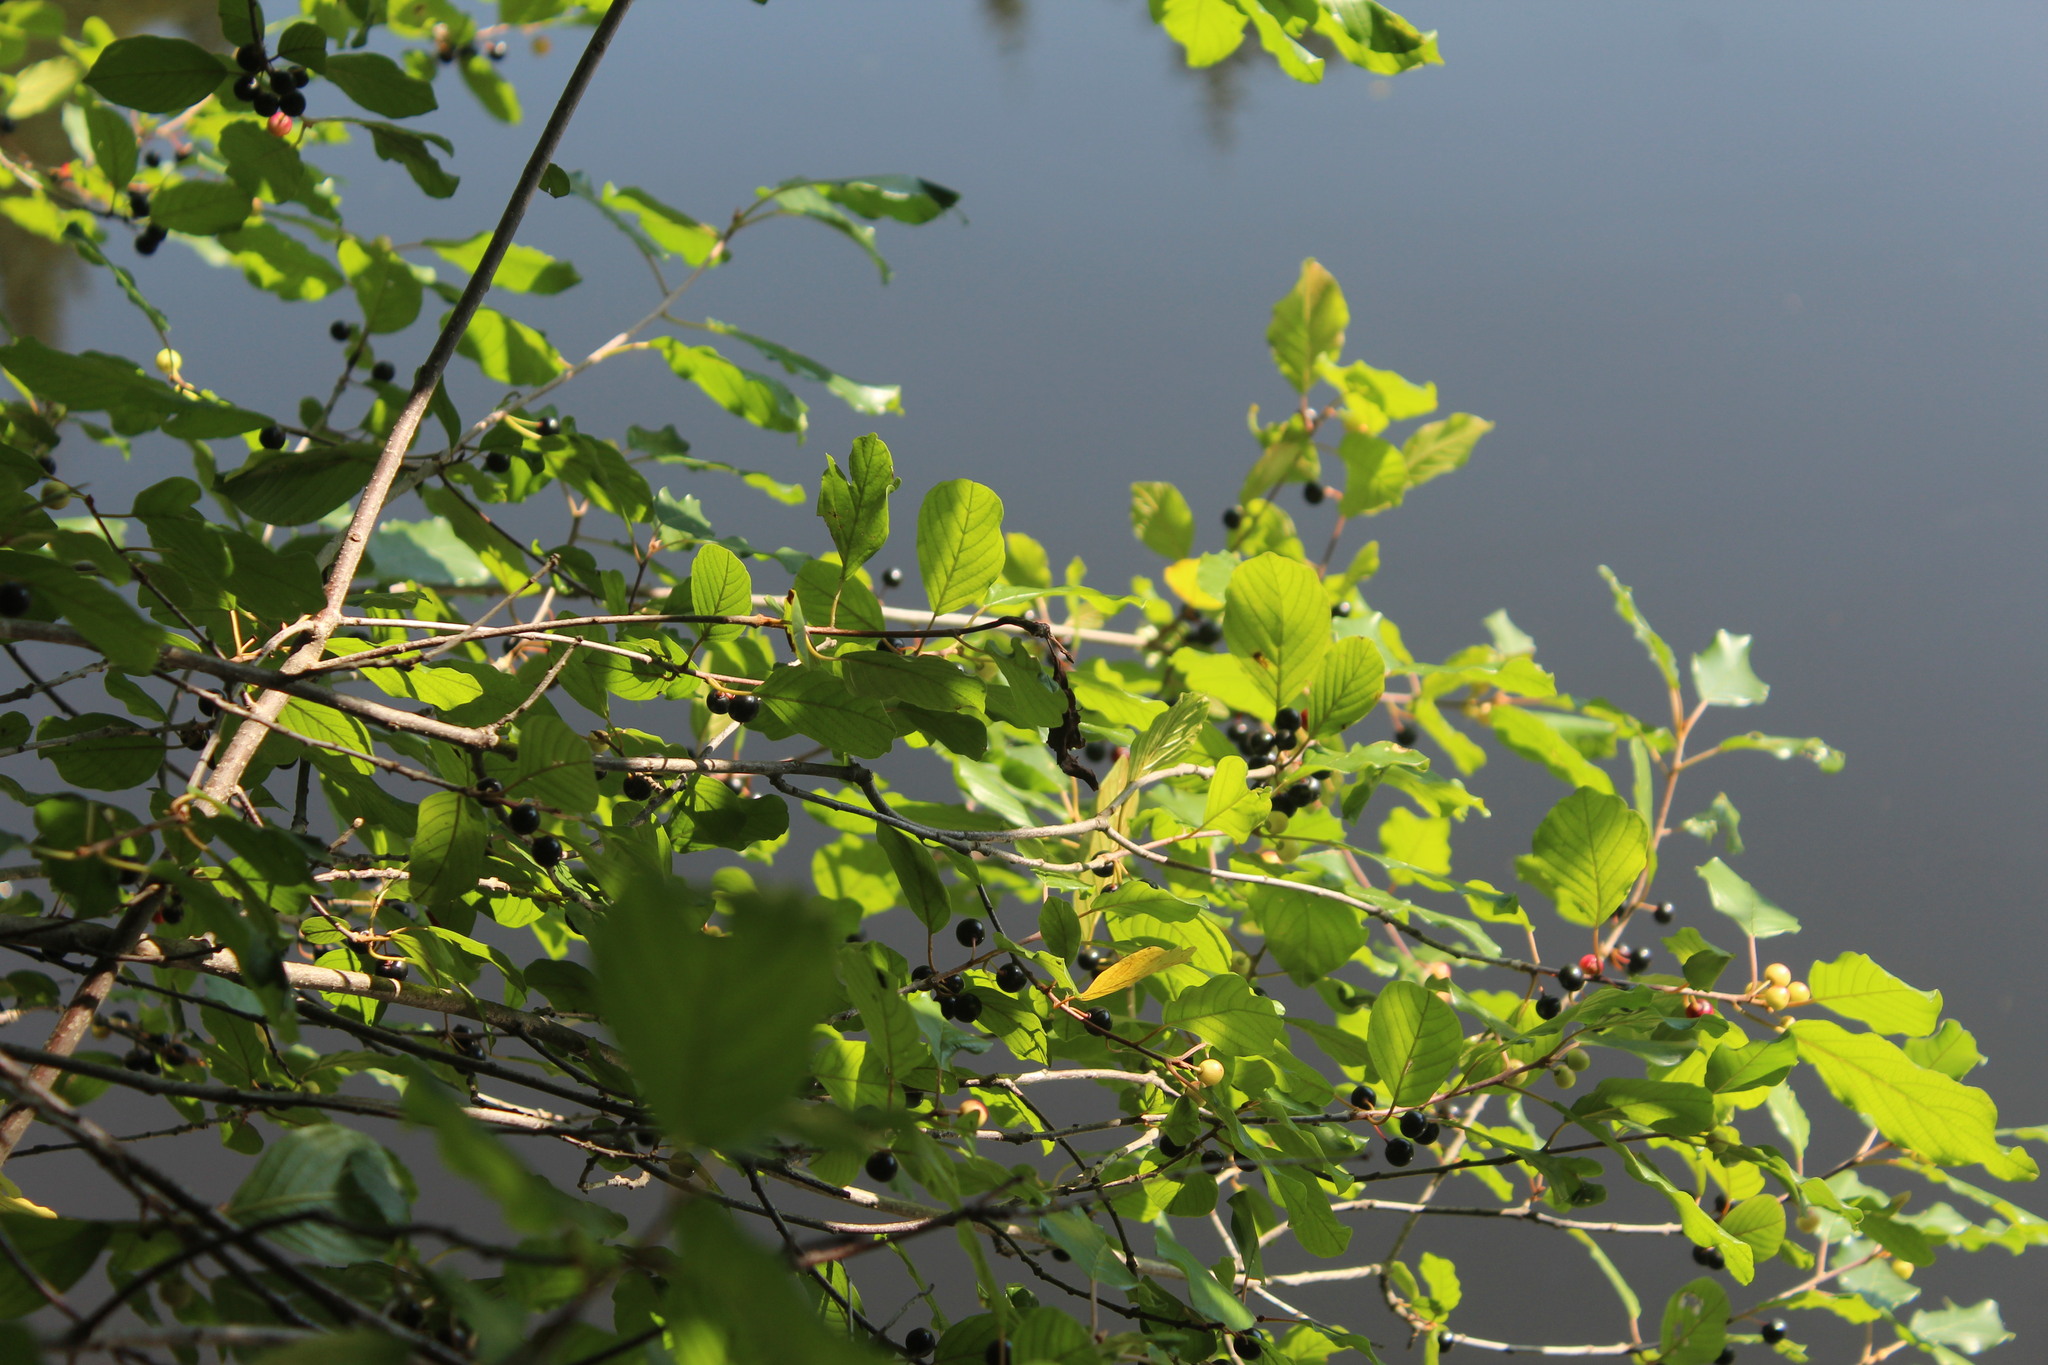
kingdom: Plantae
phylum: Tracheophyta
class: Magnoliopsida
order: Rosales
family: Rhamnaceae
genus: Frangula
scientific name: Frangula alnus
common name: Alder buckthorn
